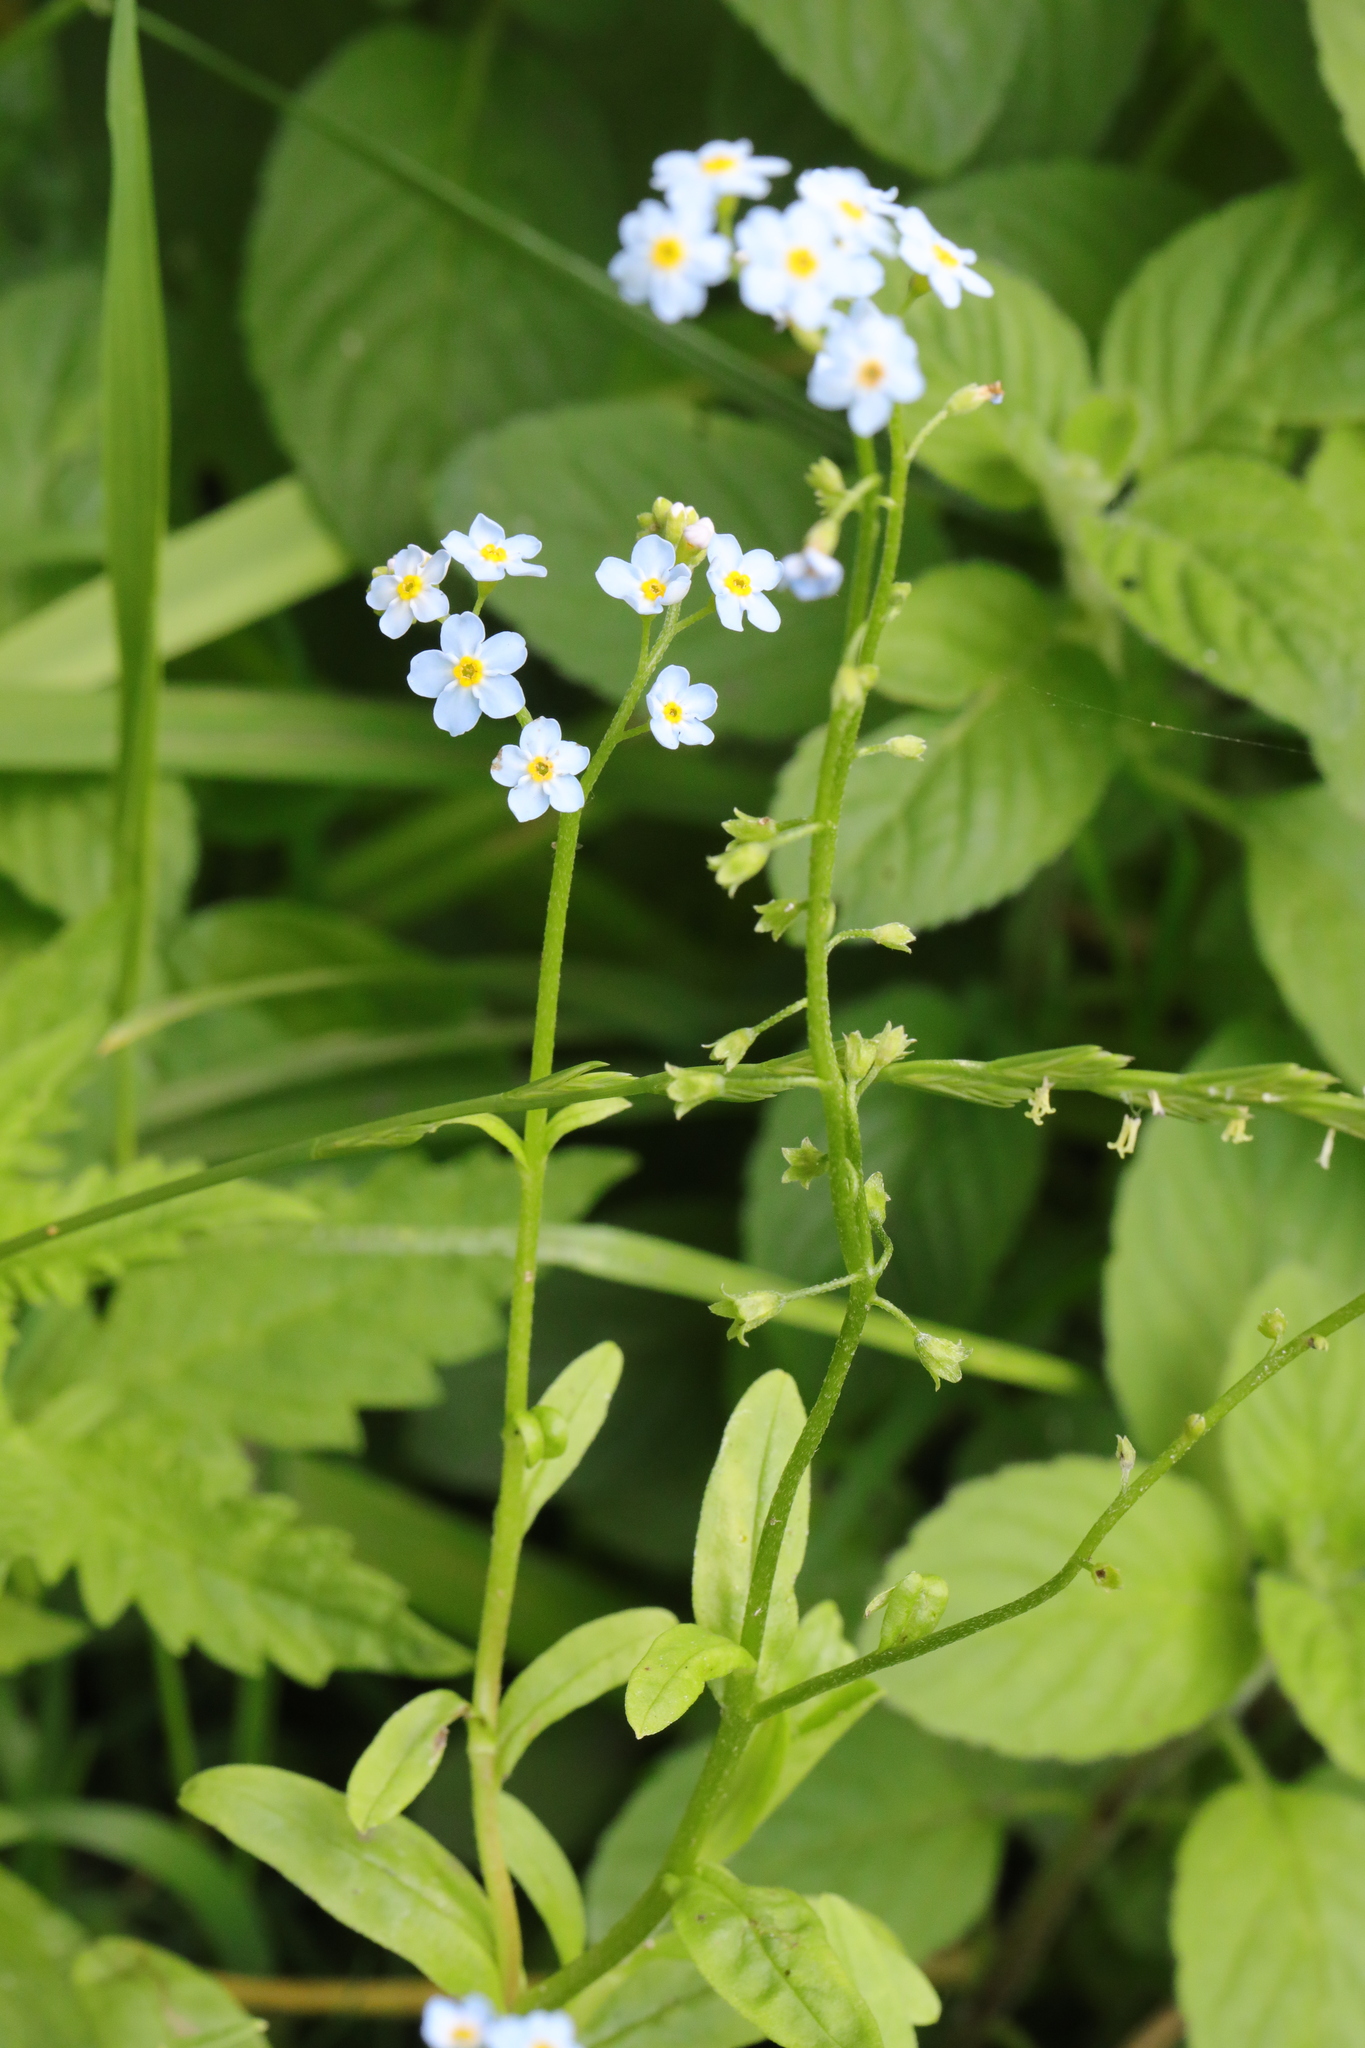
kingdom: Plantae
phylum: Tracheophyta
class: Magnoliopsida
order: Boraginales
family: Boraginaceae
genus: Myosotis
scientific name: Myosotis scorpioides
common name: Water forget-me-not
